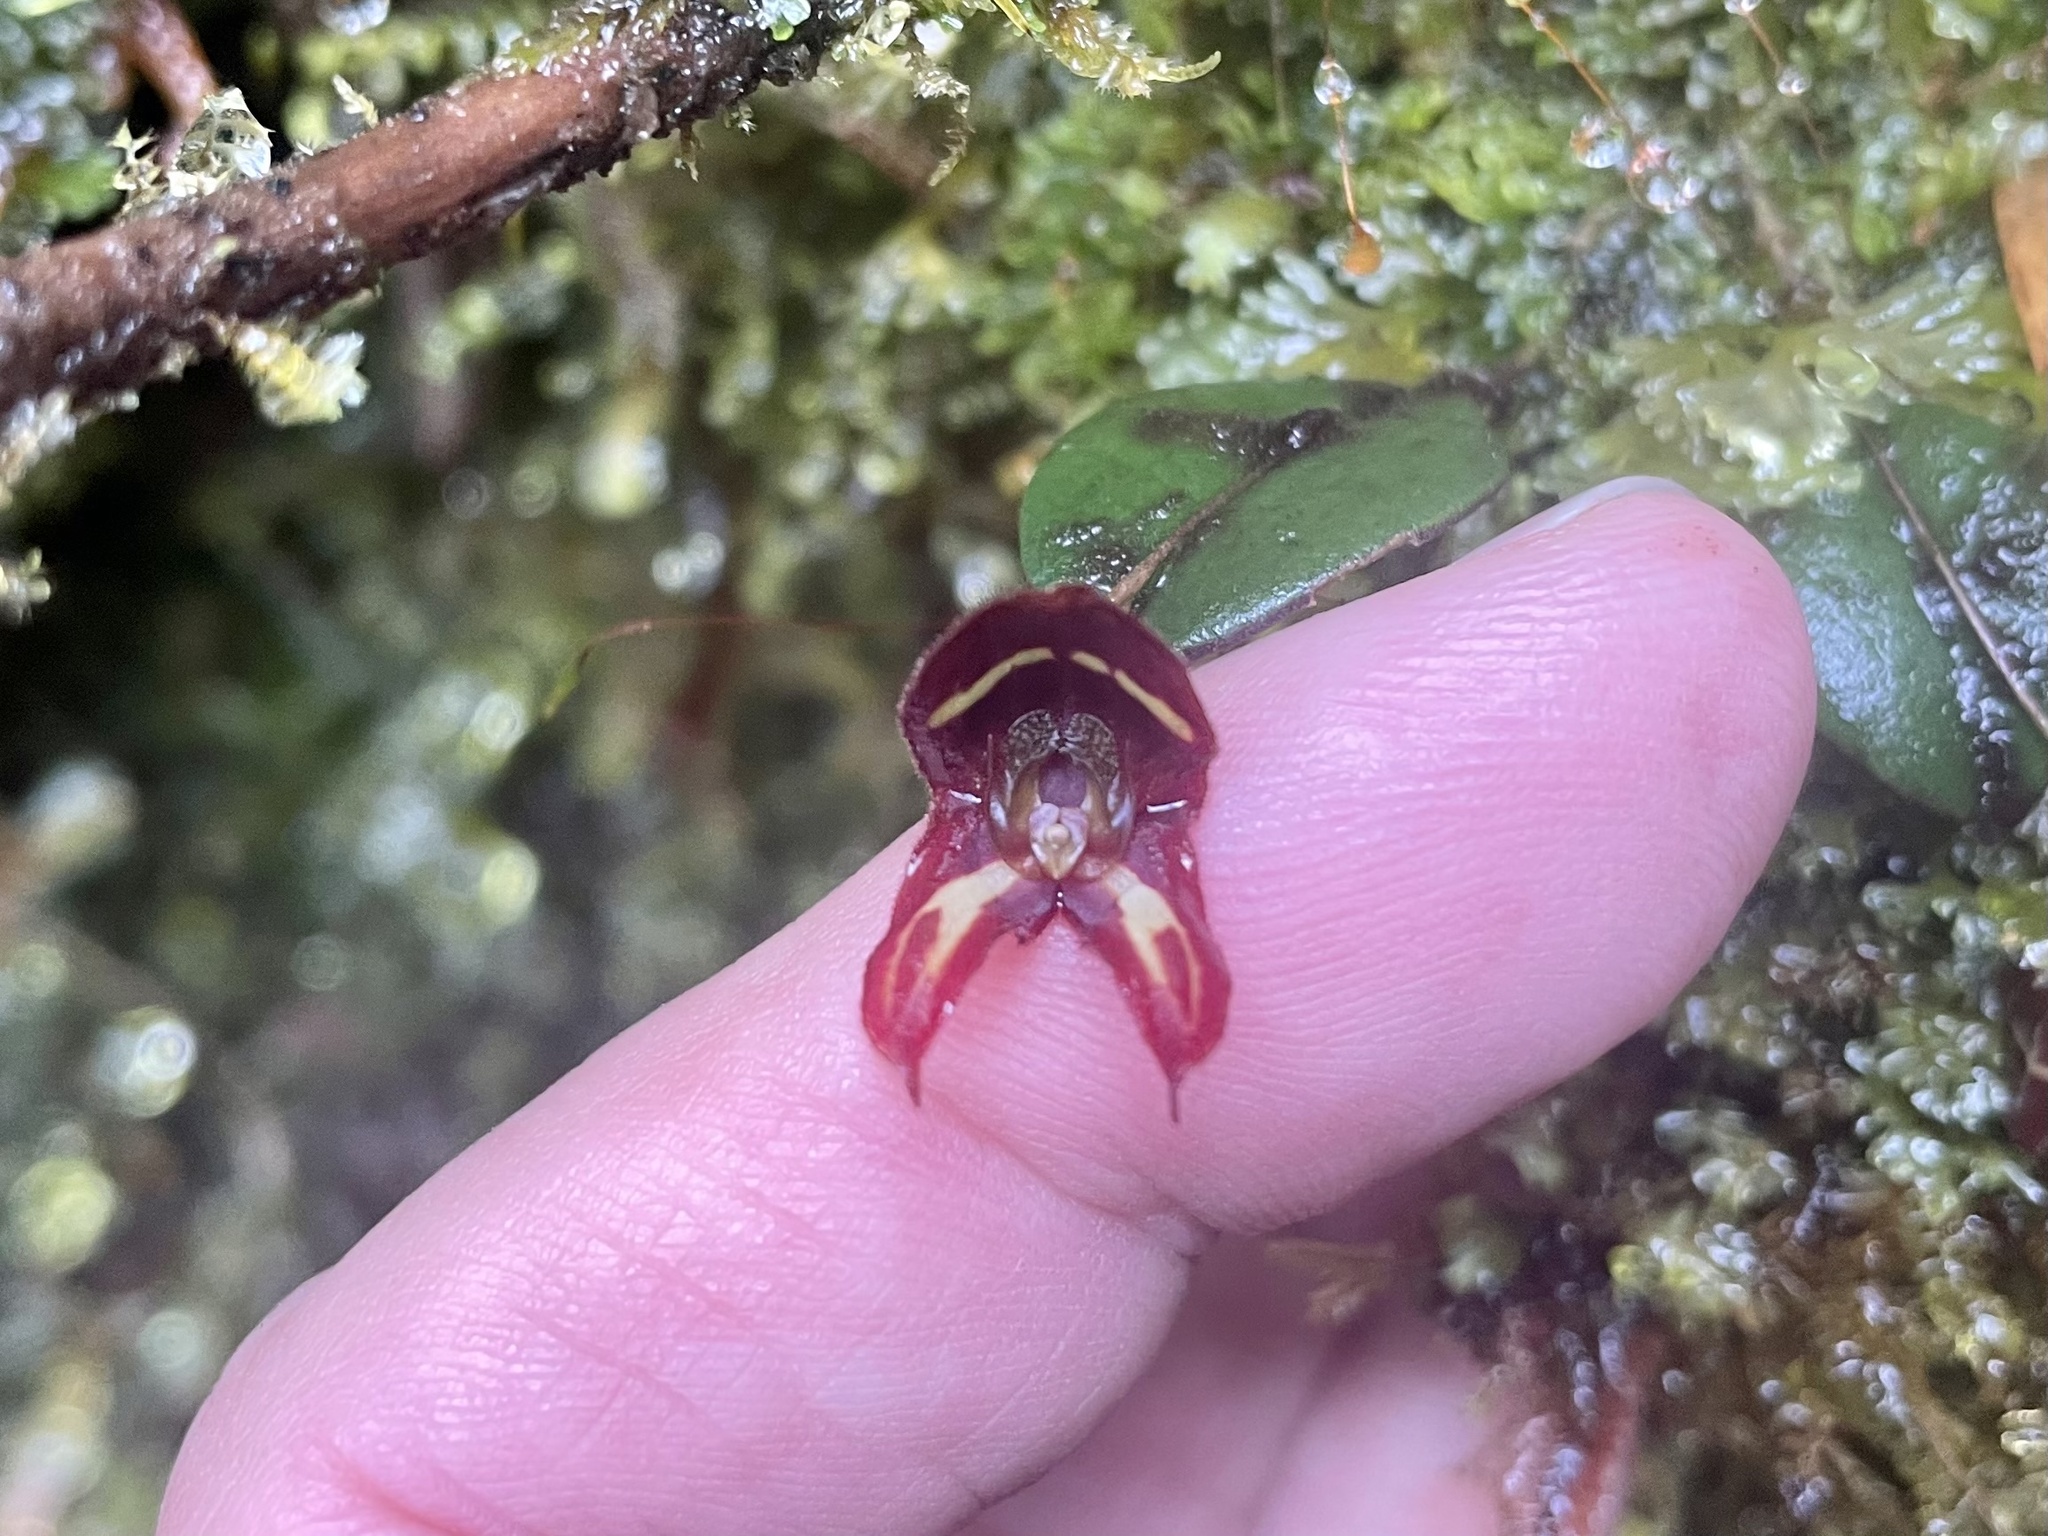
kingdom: Plantae
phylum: Tracheophyta
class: Liliopsida
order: Asparagales
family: Orchidaceae
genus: Lepanthes
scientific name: Lepanthes carunculigera
